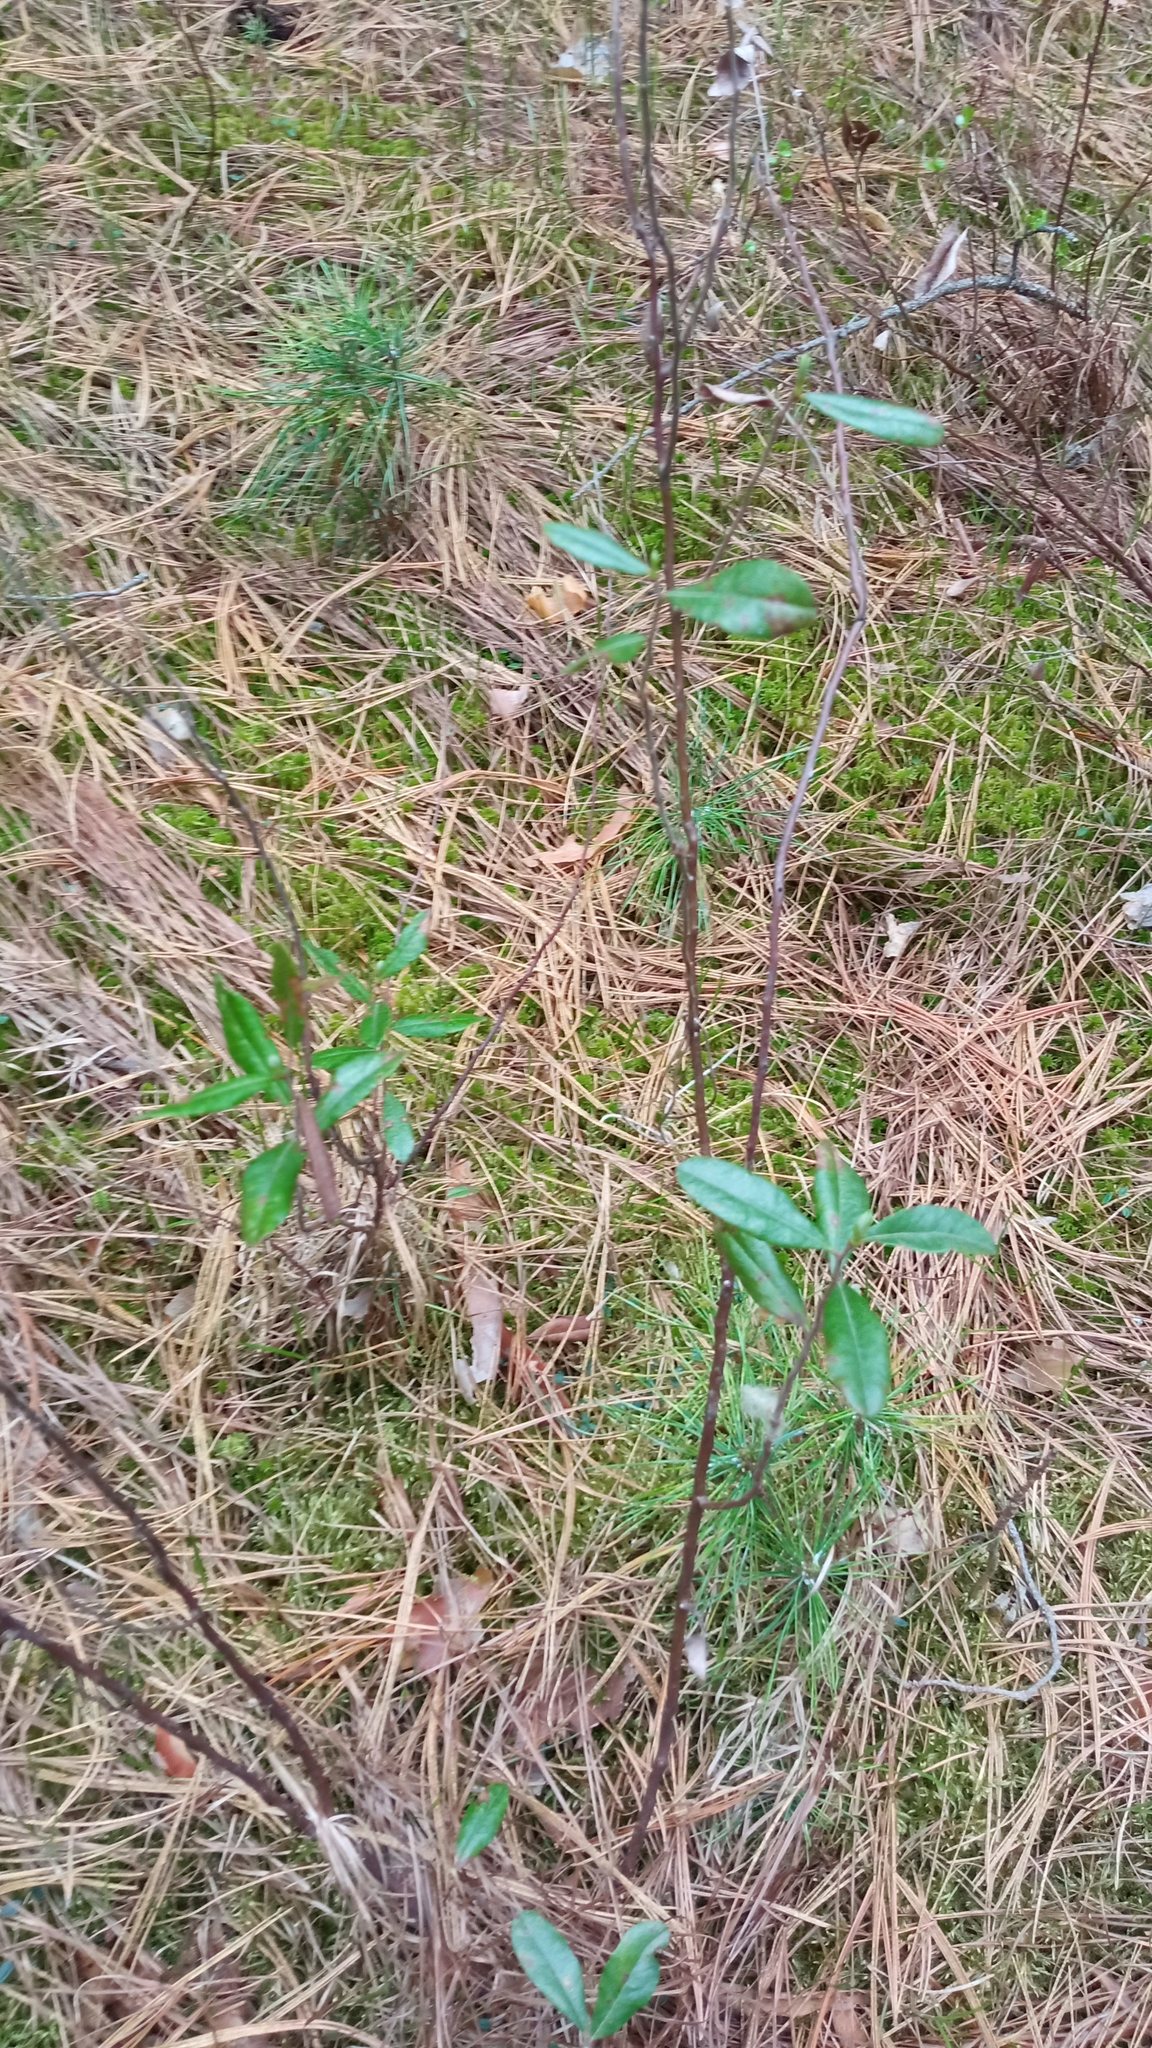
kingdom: Plantae
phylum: Tracheophyta
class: Magnoliopsida
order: Ericales
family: Ericaceae
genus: Chamaedaphne
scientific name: Chamaedaphne calyculata
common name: Leatherleaf
